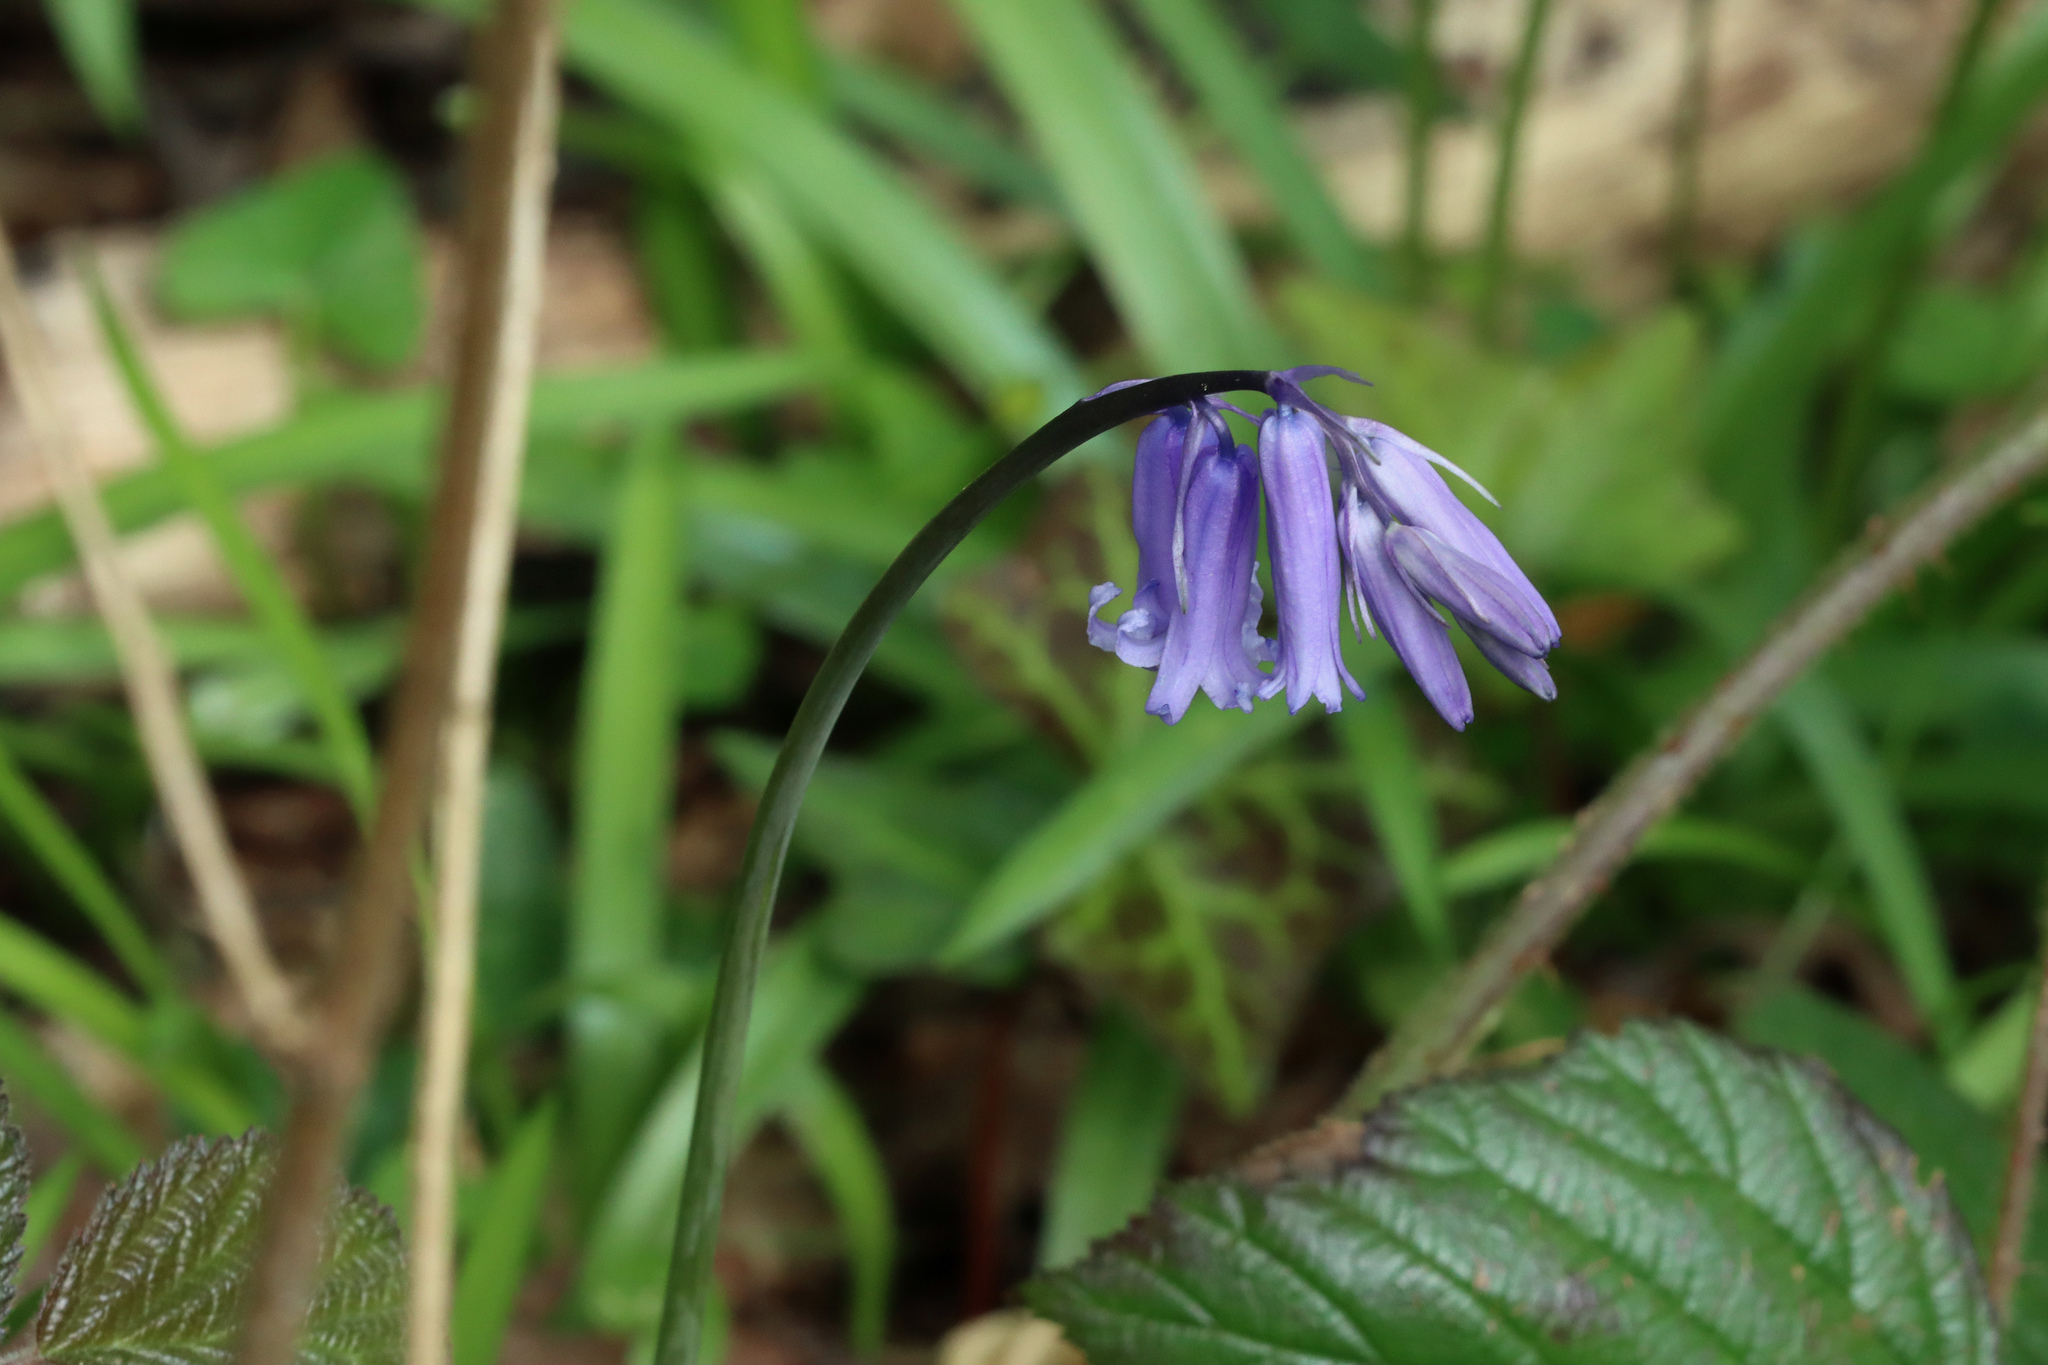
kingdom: Plantae
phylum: Tracheophyta
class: Liliopsida
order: Asparagales
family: Asparagaceae
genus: Hyacinthoides
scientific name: Hyacinthoides non-scripta
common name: Bluebell
